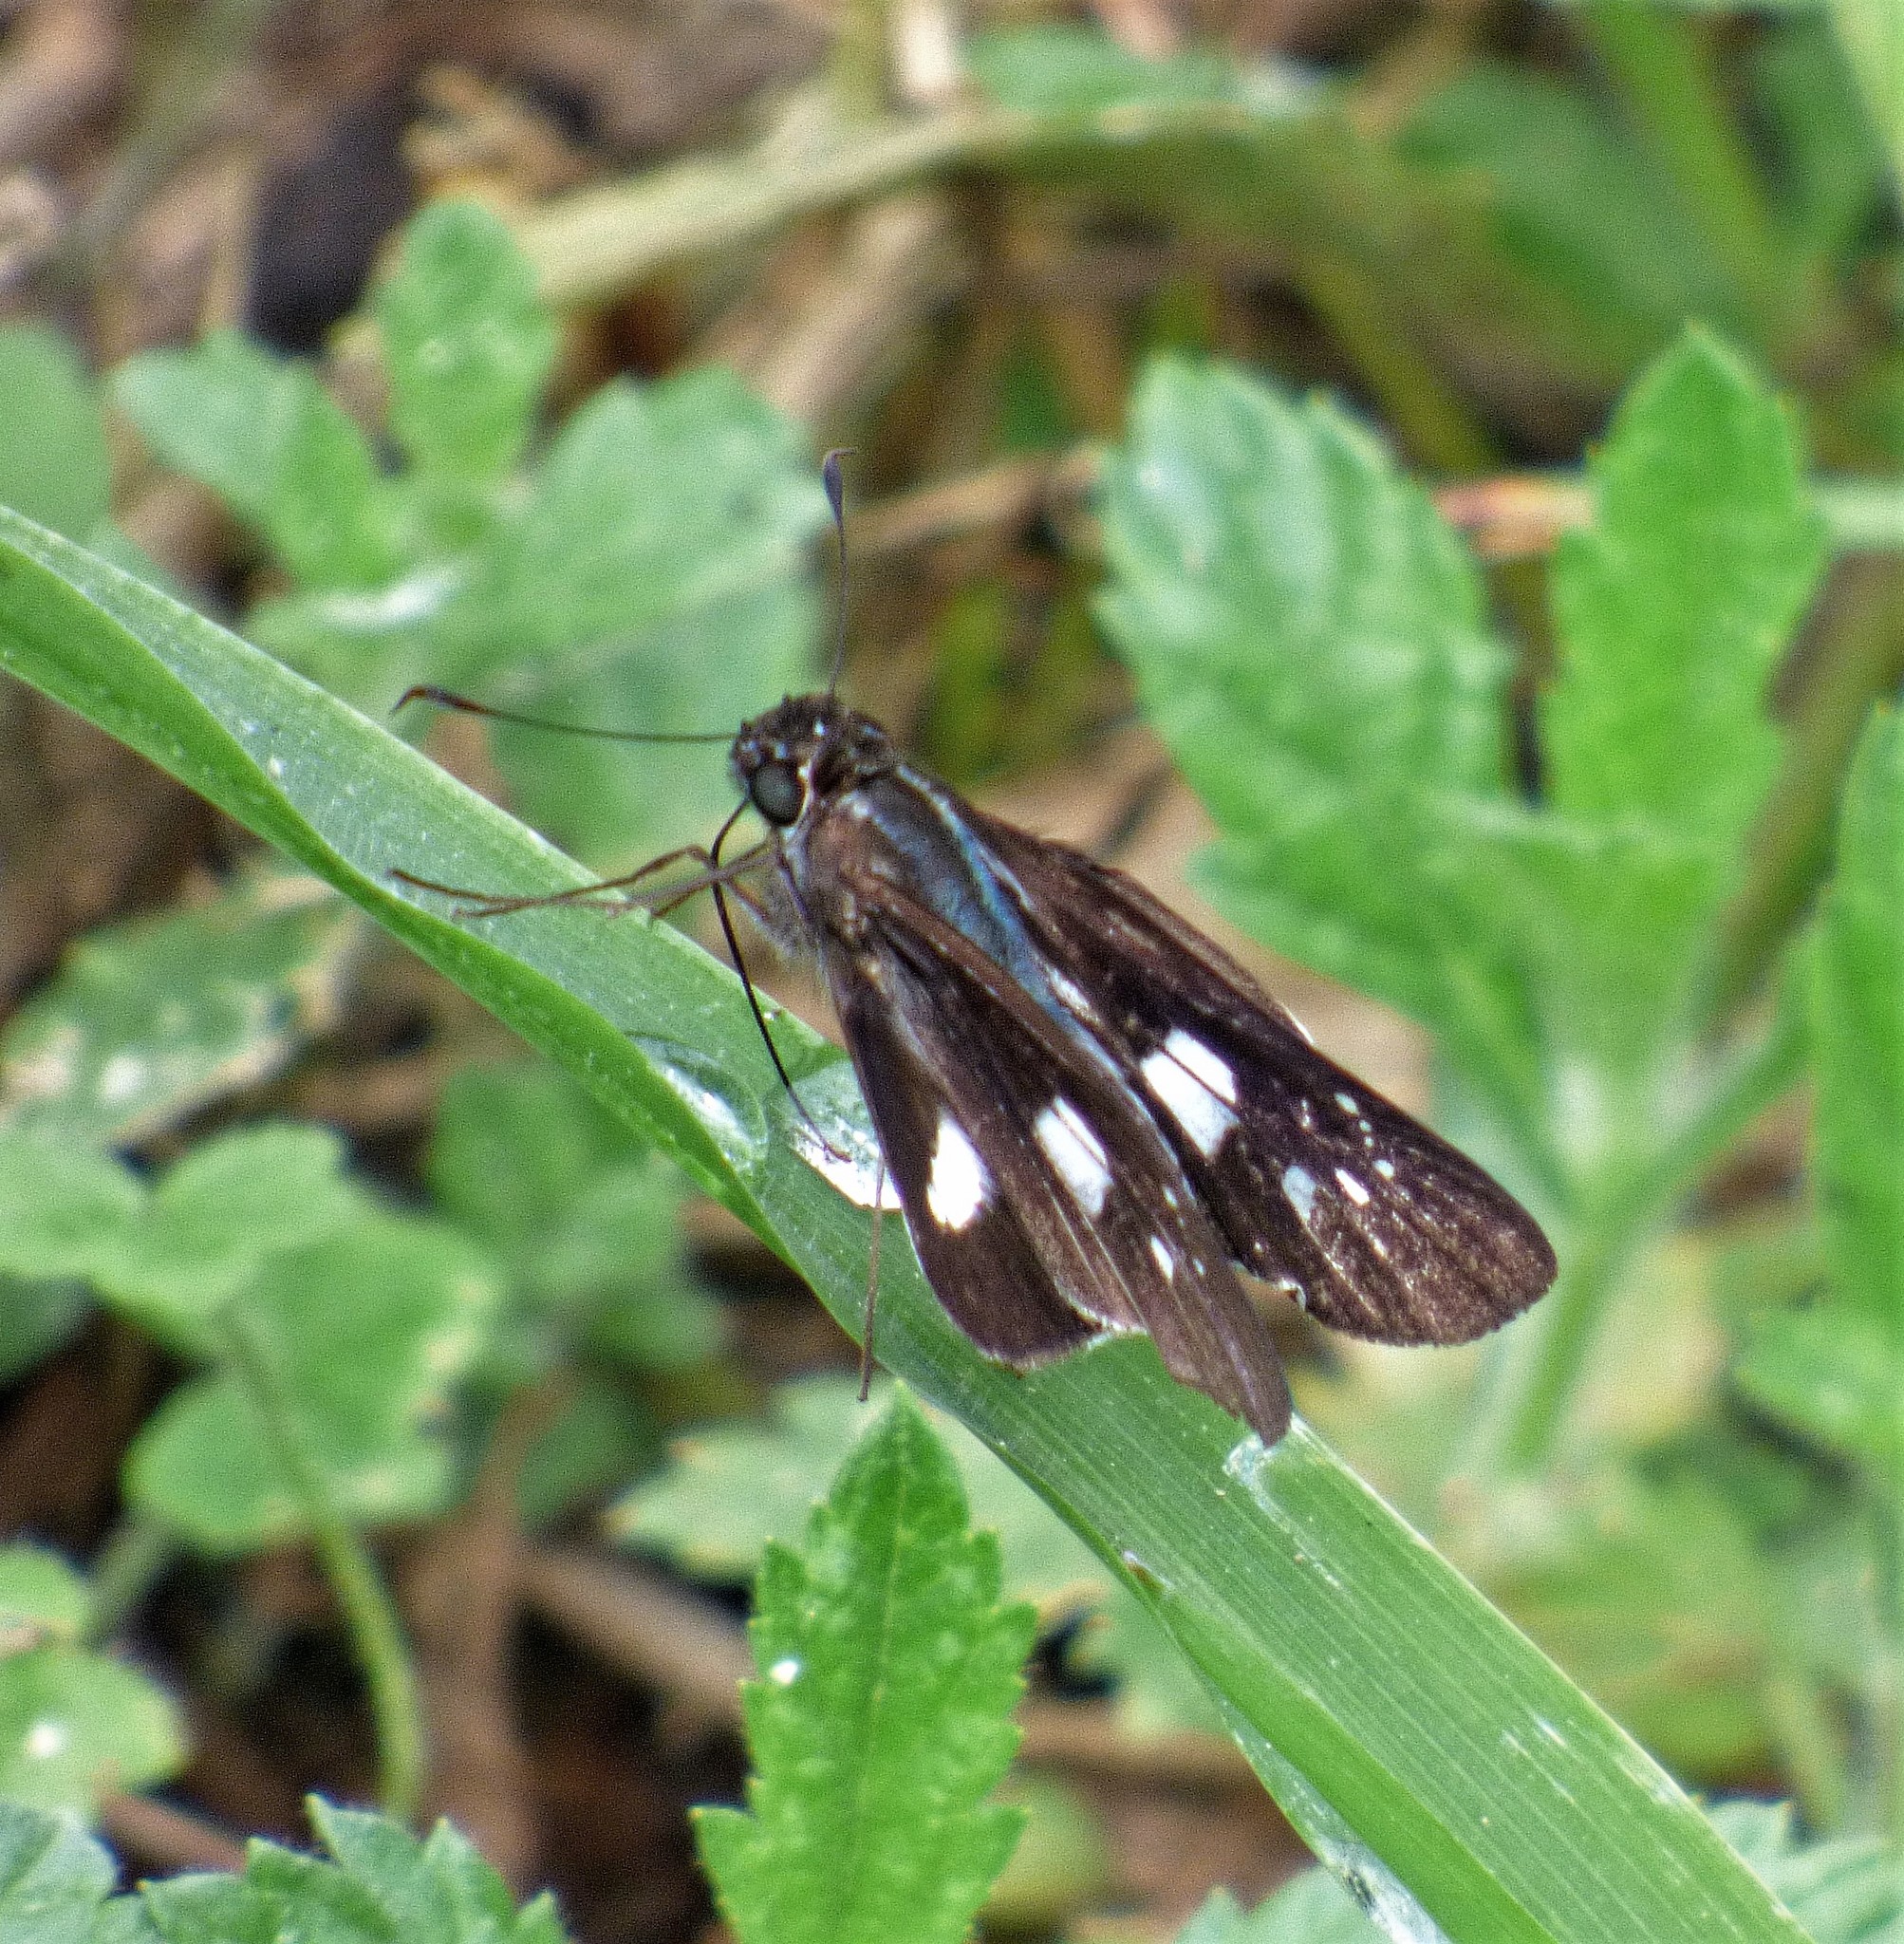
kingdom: Animalia
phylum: Arthropoda
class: Insecta
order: Lepidoptera
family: Hesperiidae
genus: Zenis
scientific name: Zenis jebus
